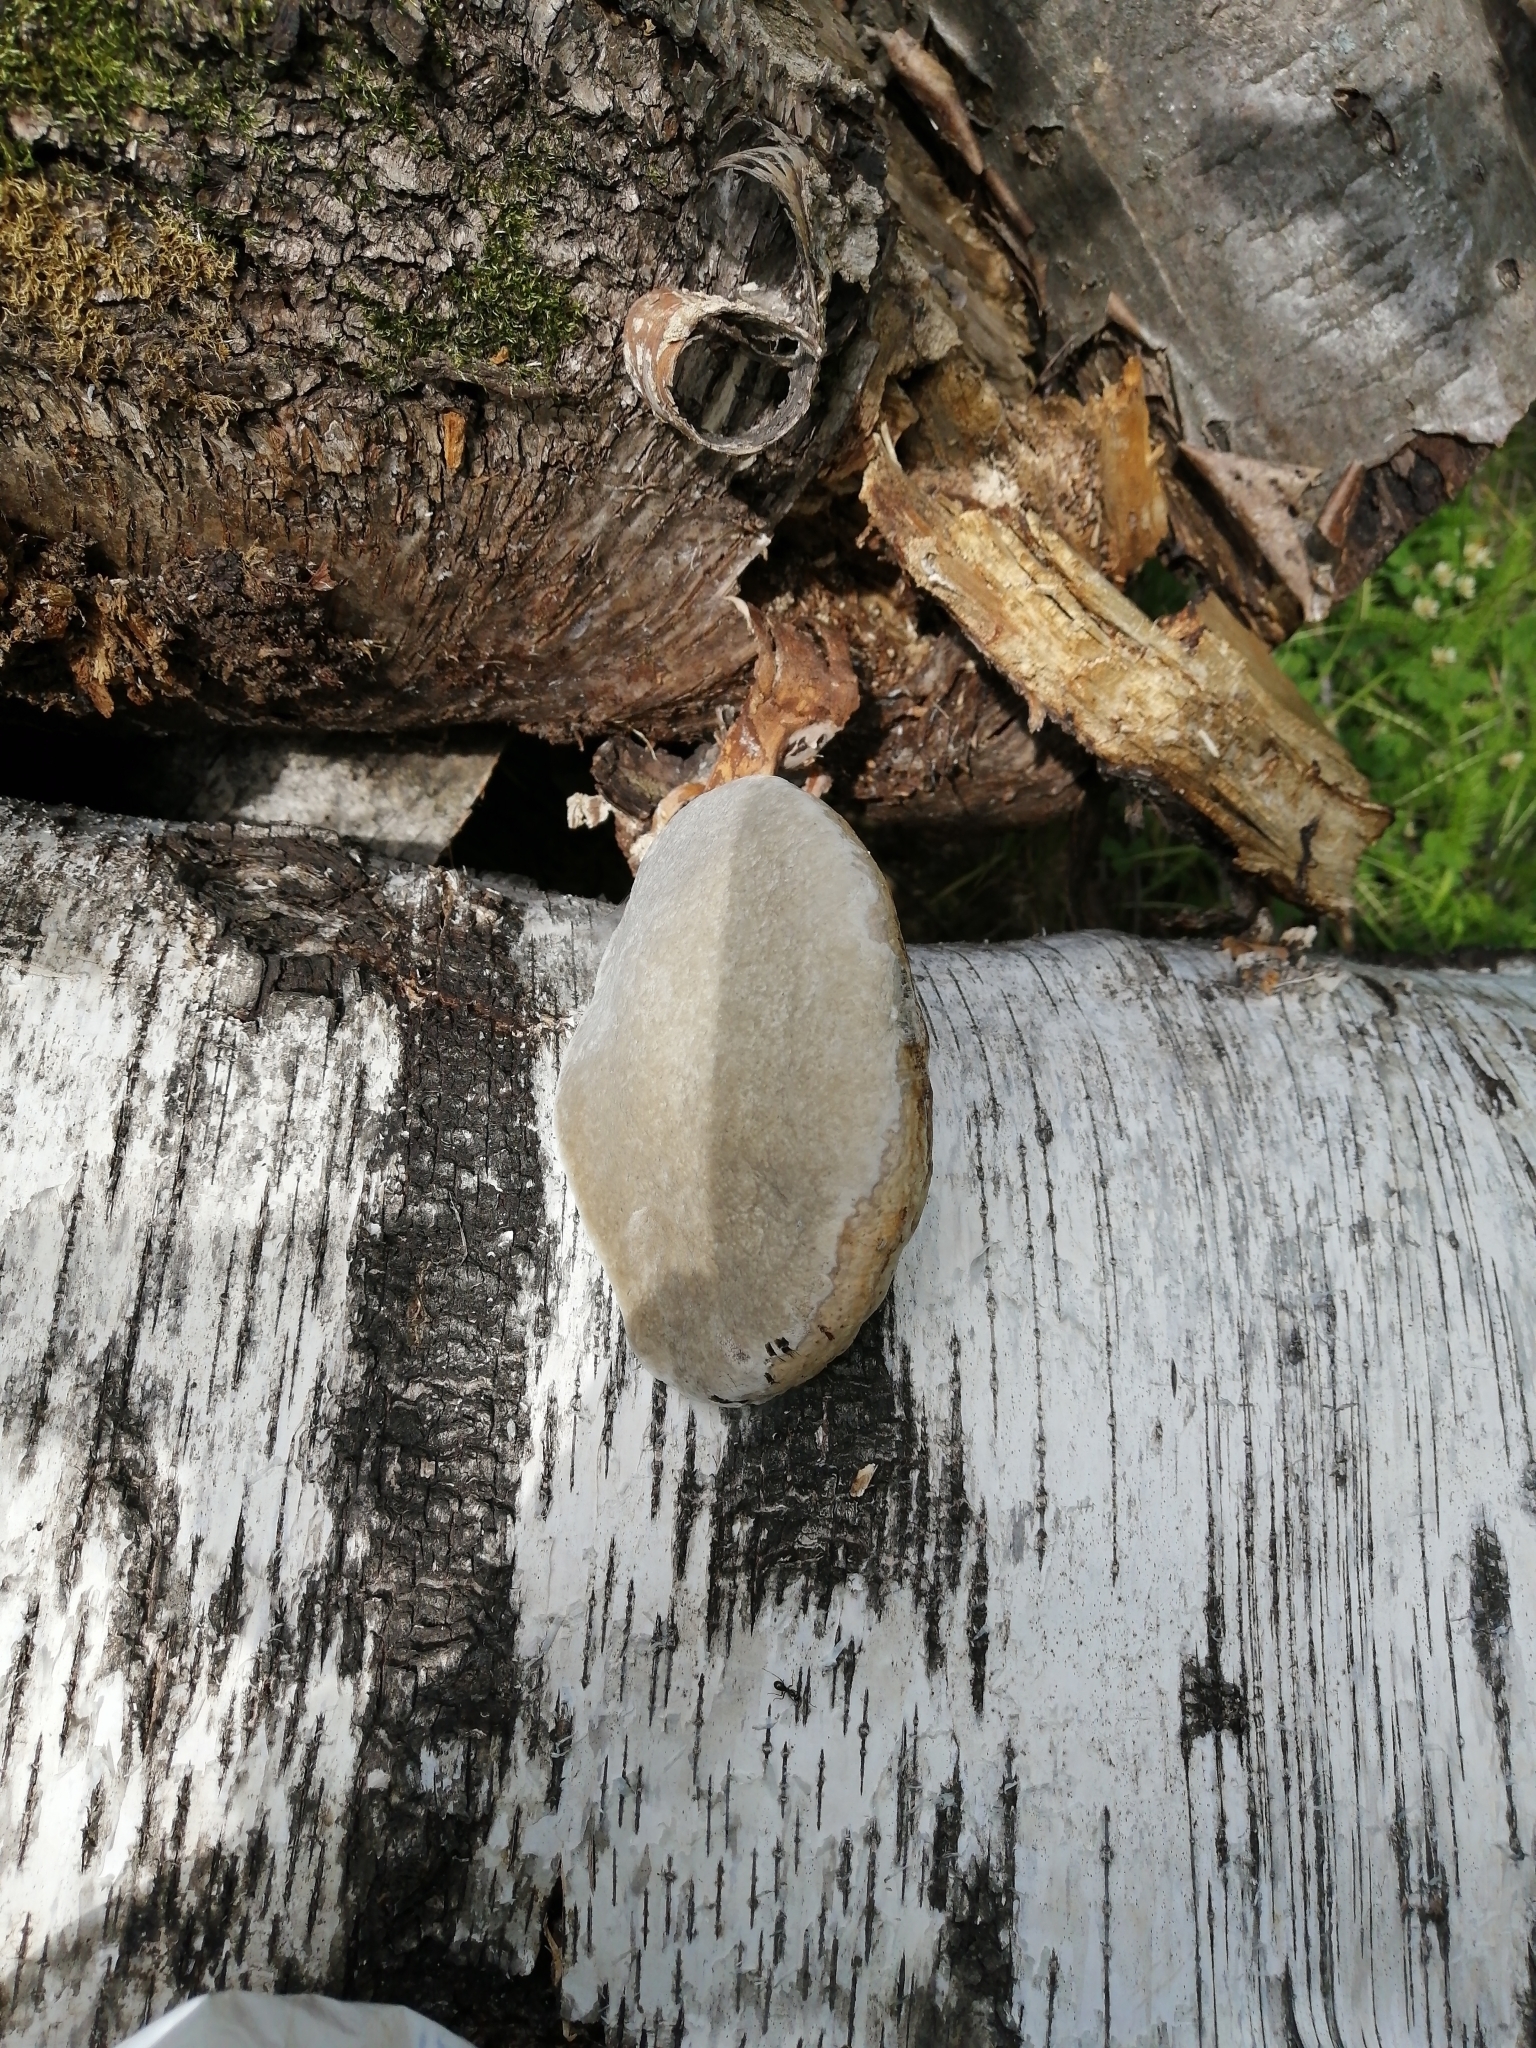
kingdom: Fungi
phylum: Basidiomycota
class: Agaricomycetes
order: Polyporales
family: Polyporaceae
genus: Fomes
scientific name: Fomes fomentarius
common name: Hoof fungus
